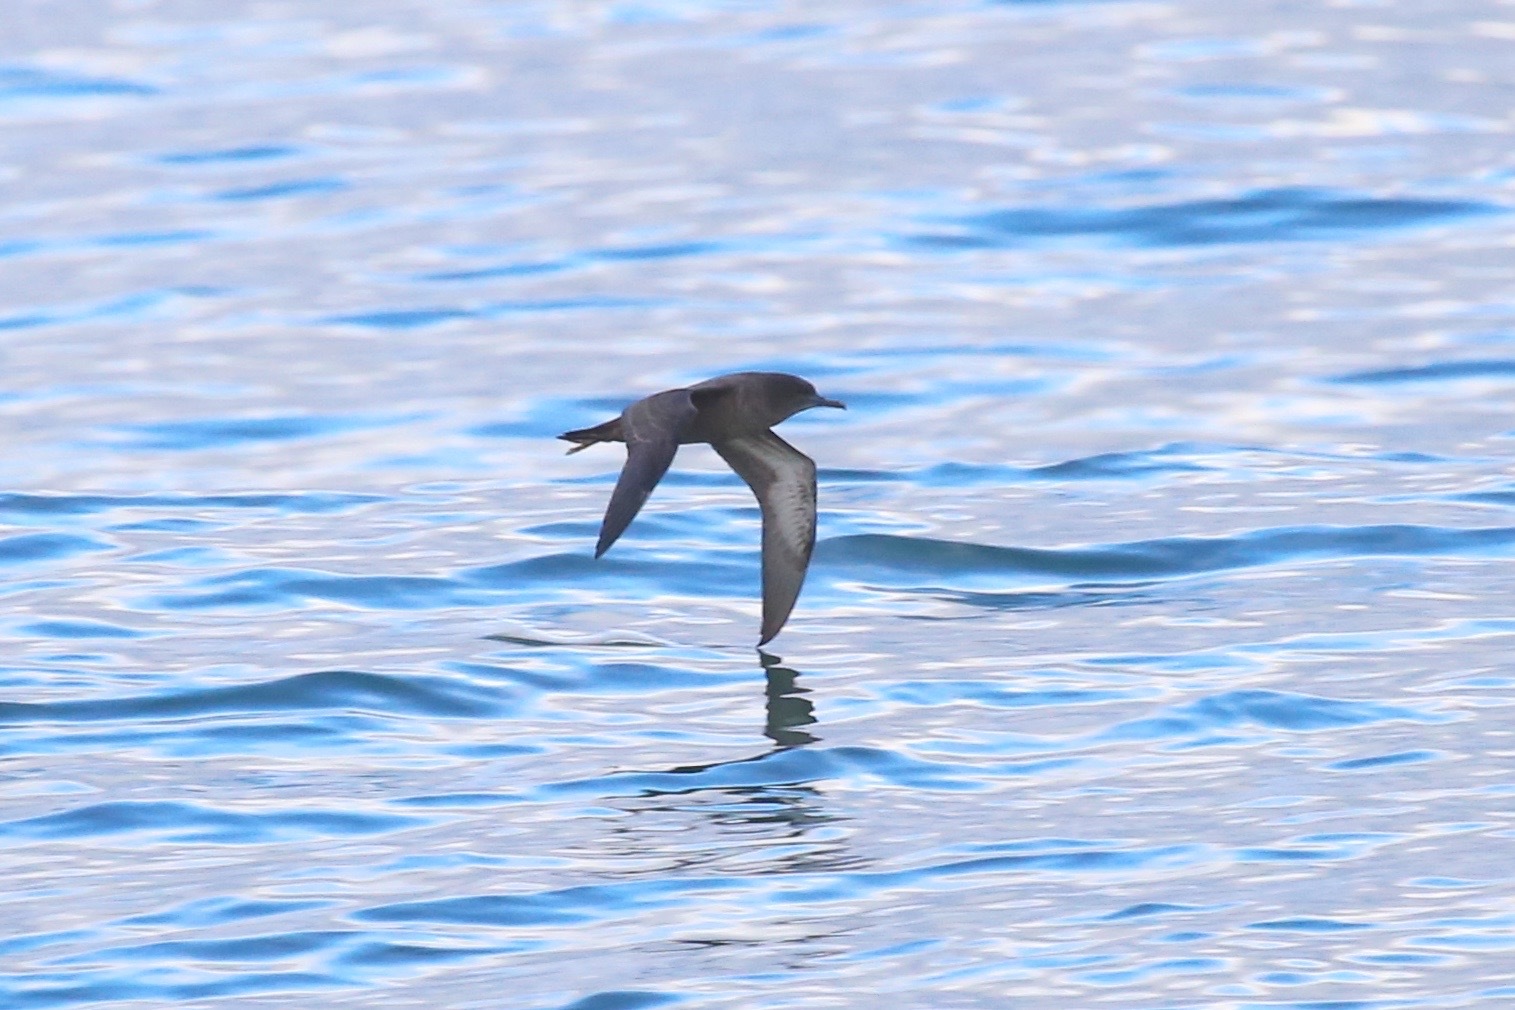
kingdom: Animalia
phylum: Chordata
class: Aves
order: Procellariiformes
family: Procellariidae
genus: Puffinus
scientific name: Puffinus griseus
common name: Sooty shearwater
